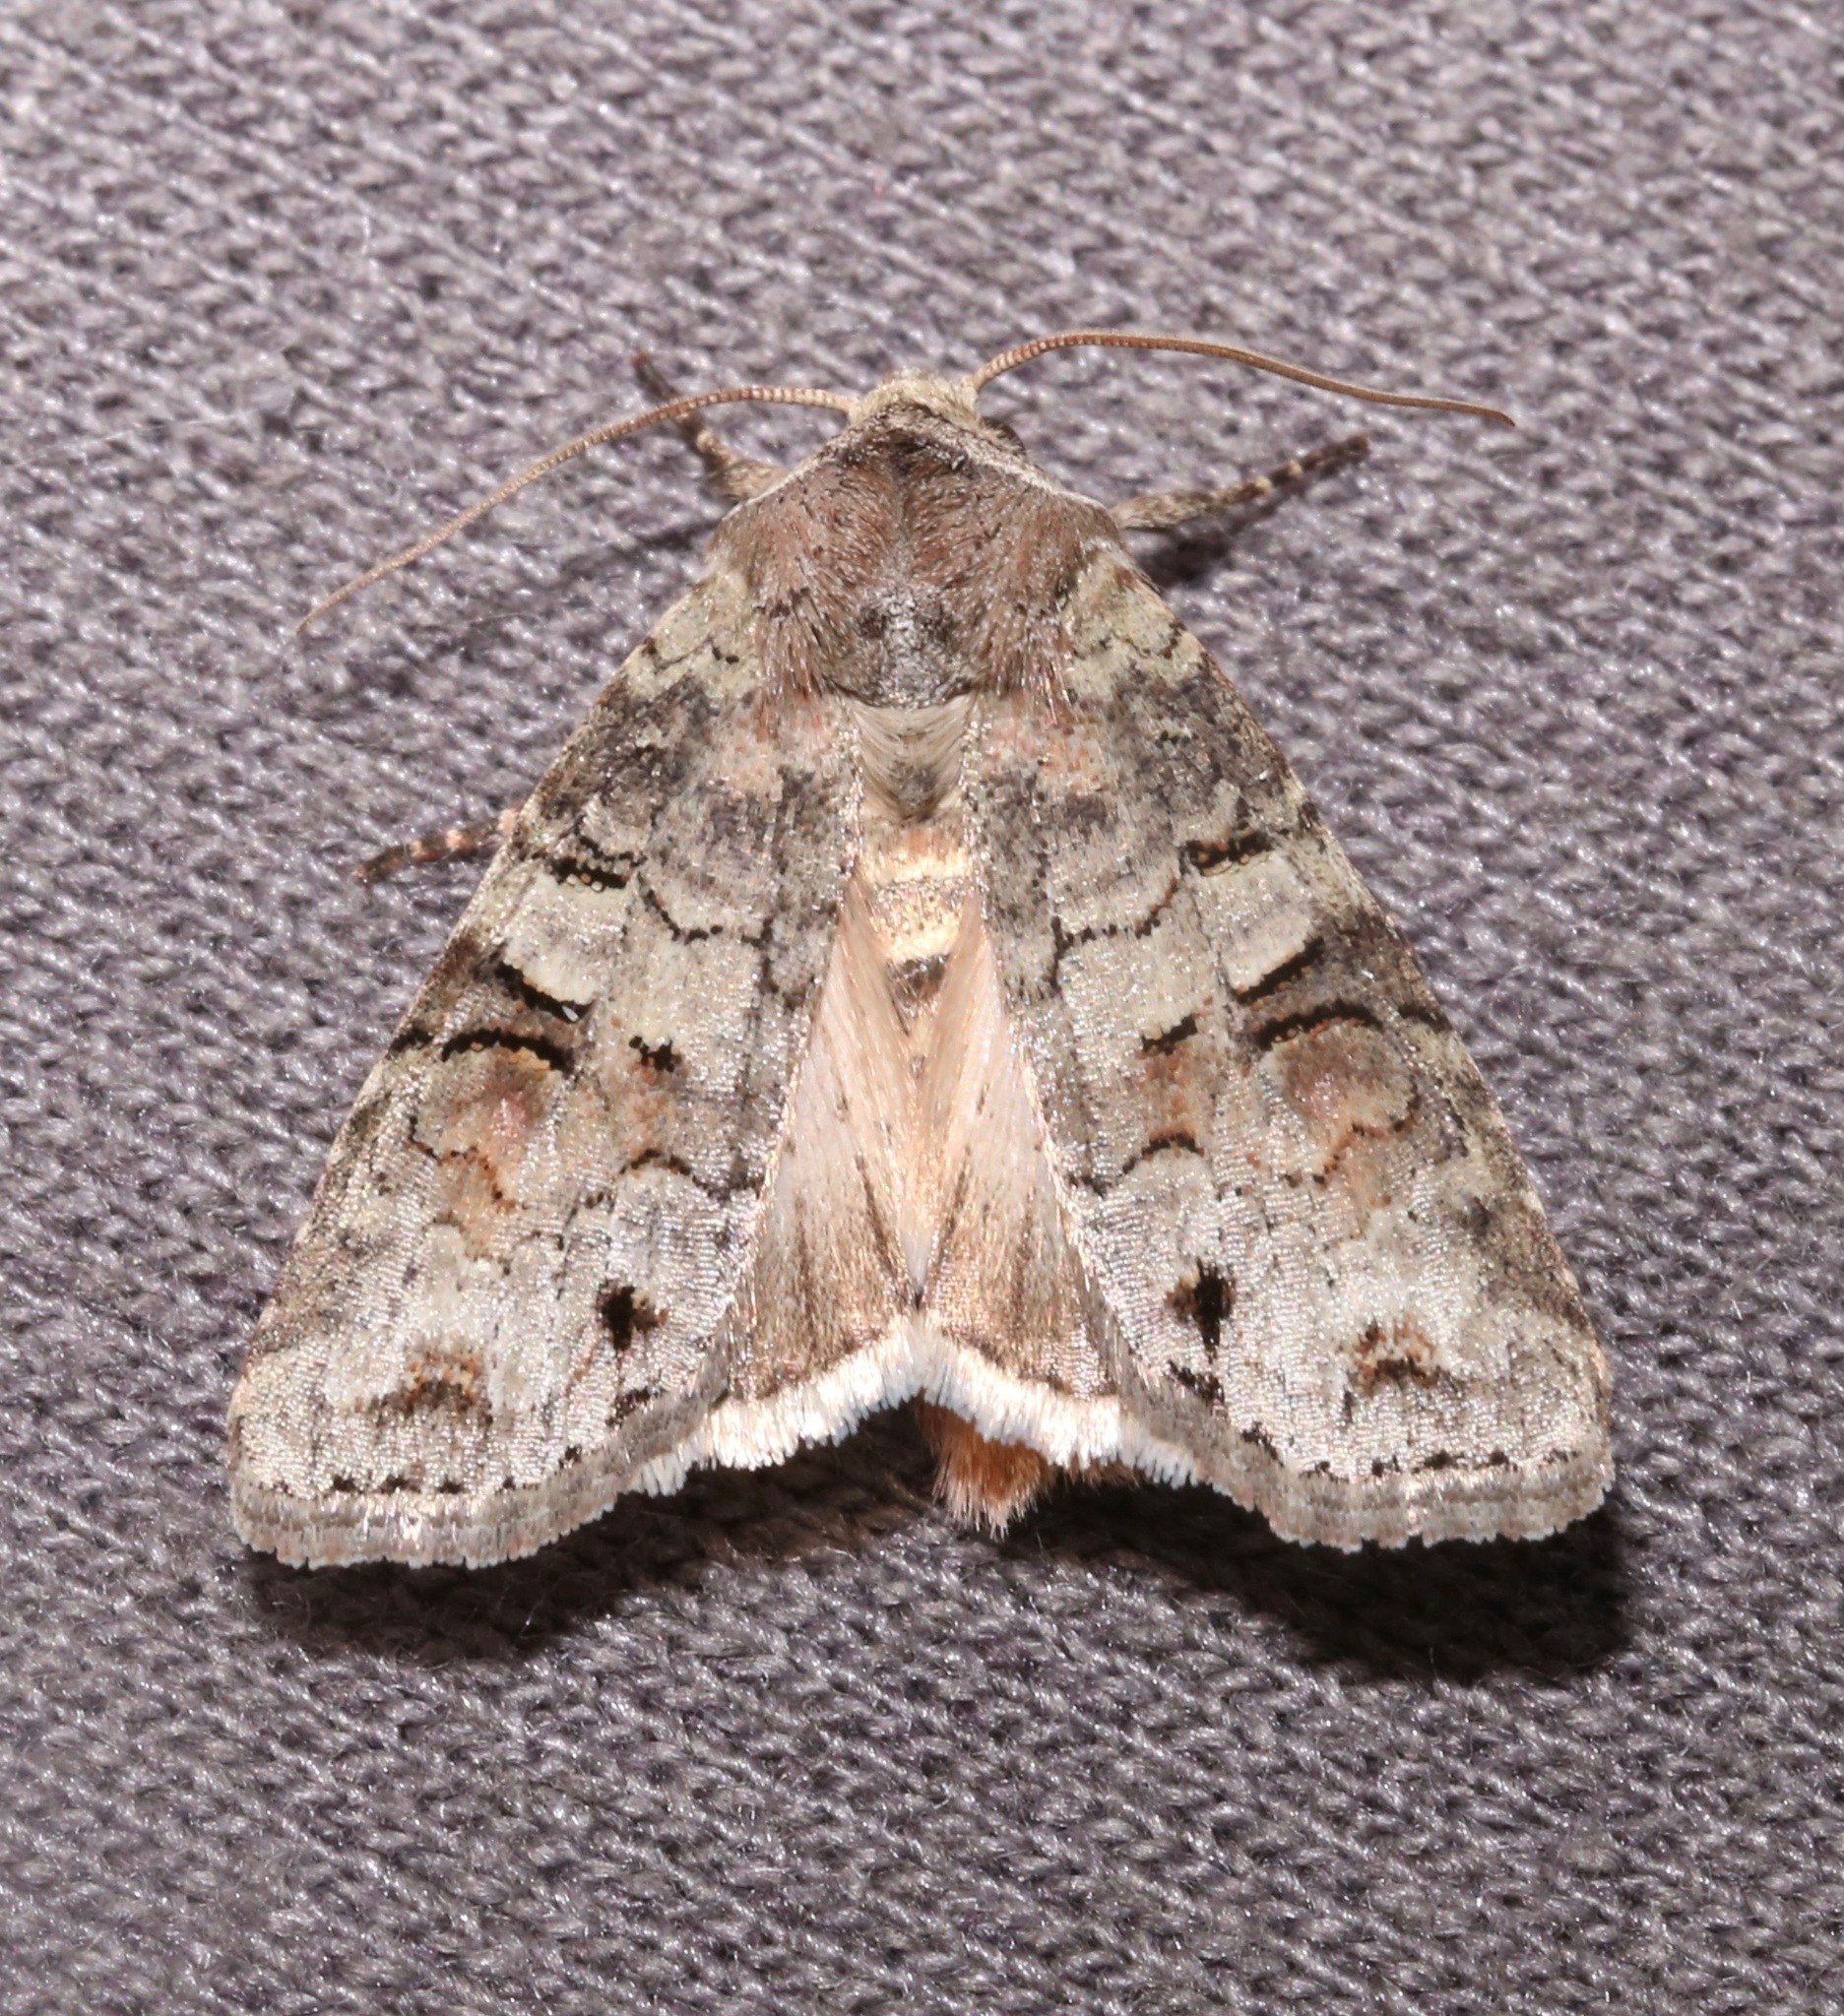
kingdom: Animalia
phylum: Arthropoda
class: Insecta
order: Lepidoptera
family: Noctuidae
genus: Egira
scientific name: Egira alternans
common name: Alternate woodling
